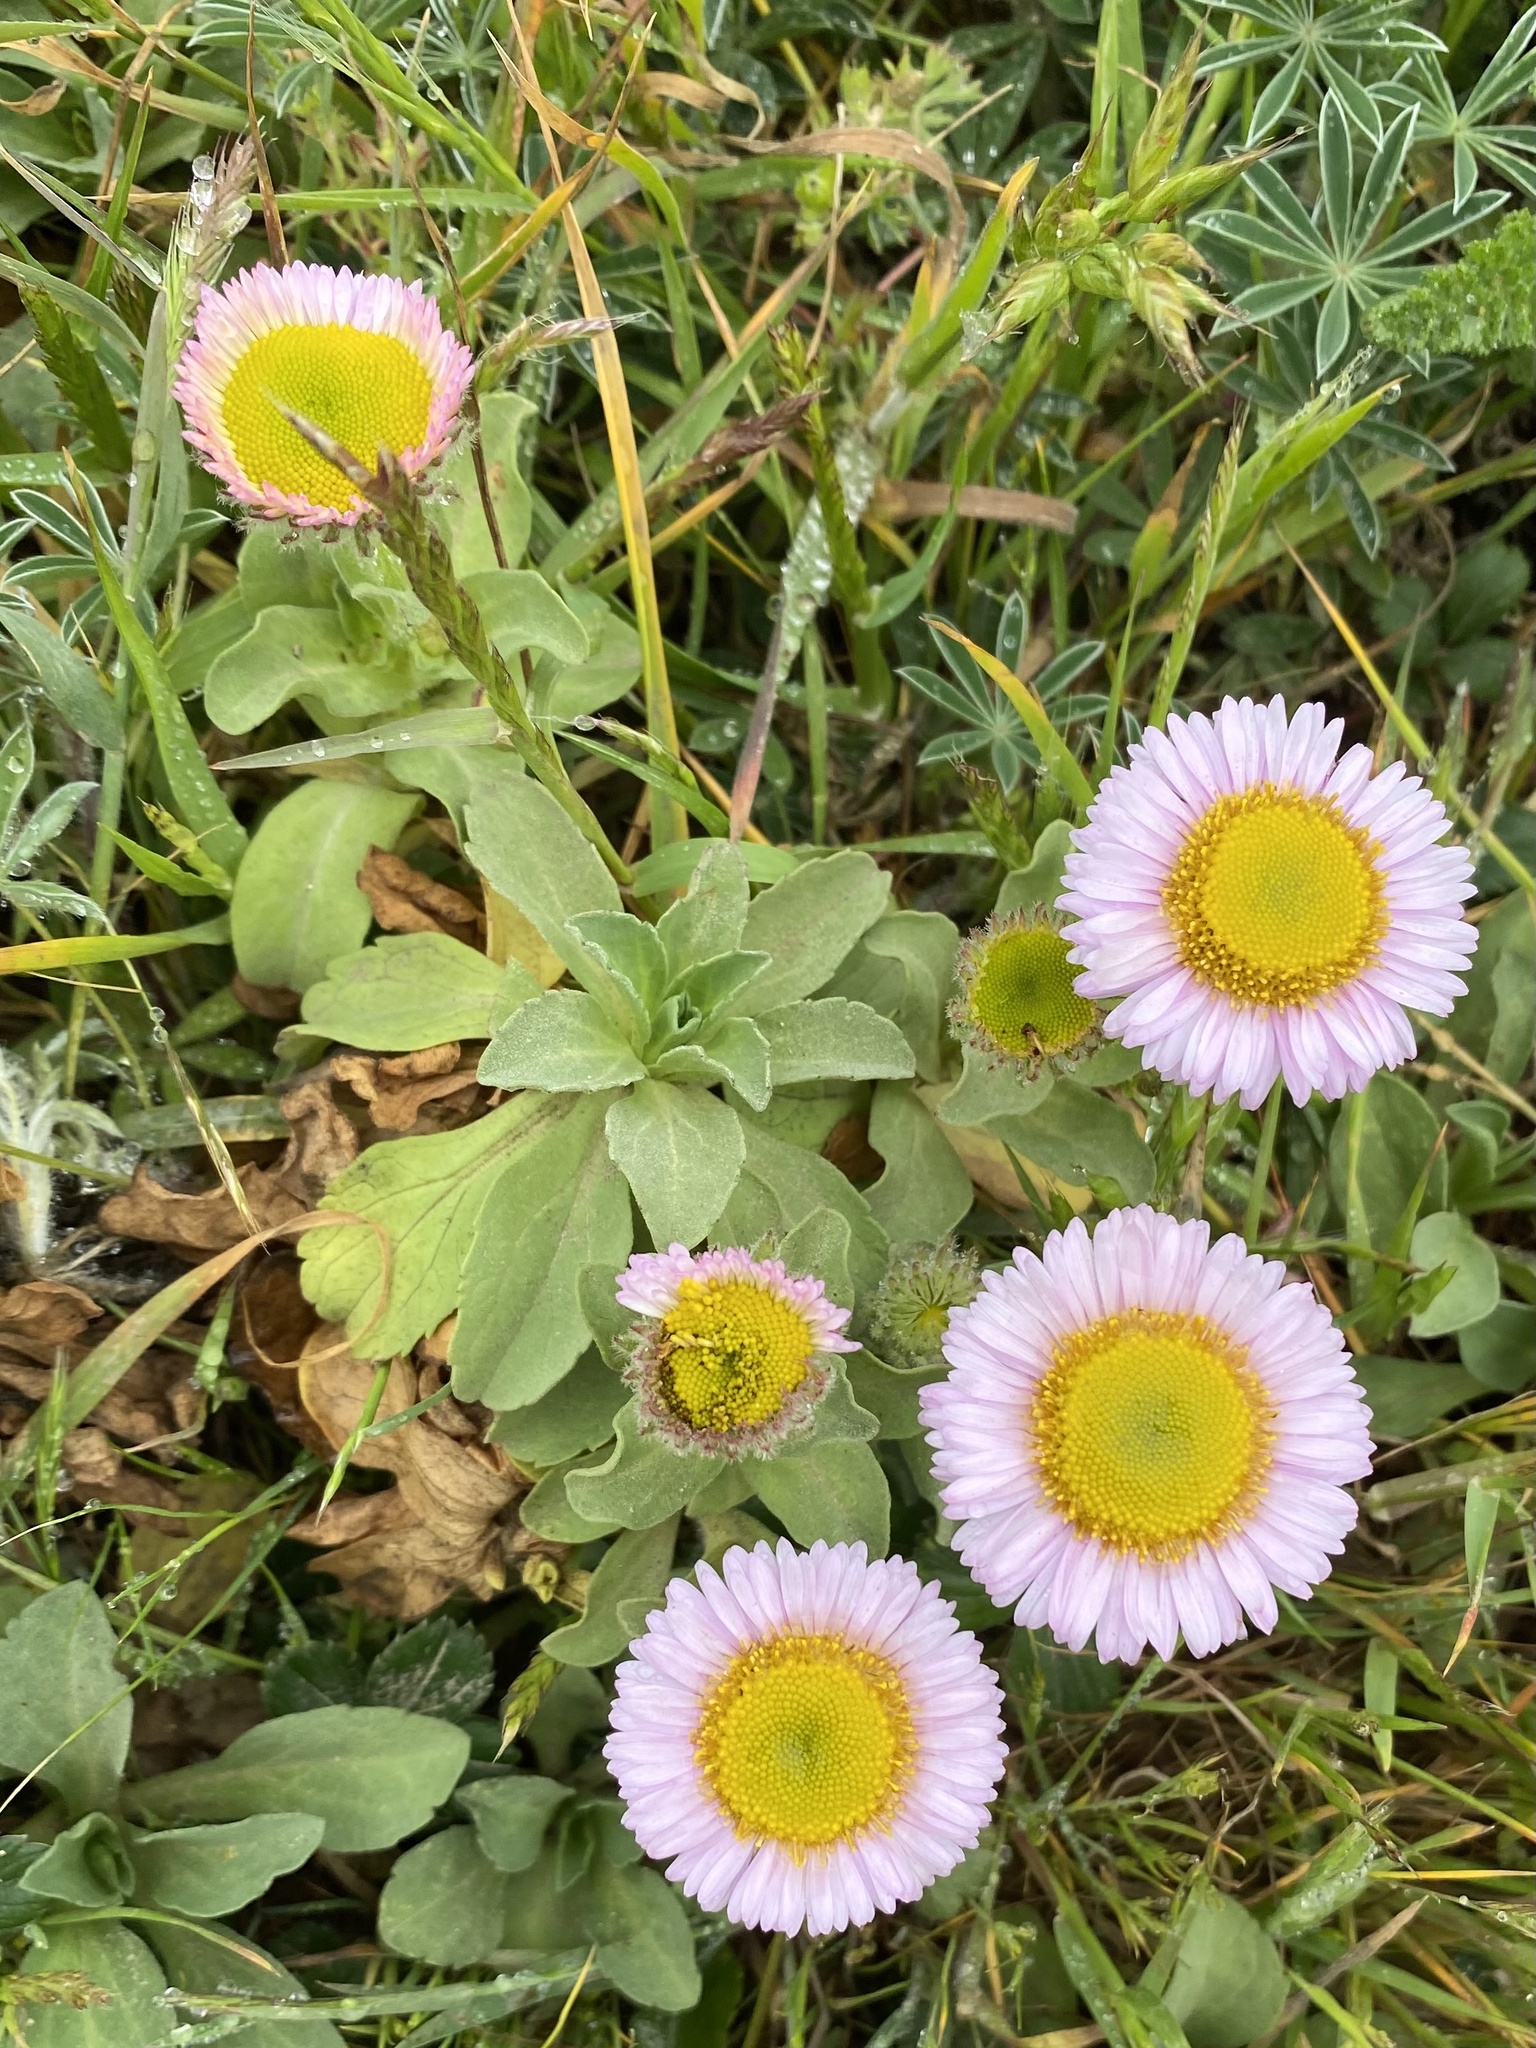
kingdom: Plantae
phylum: Tracheophyta
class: Magnoliopsida
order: Asterales
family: Asteraceae
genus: Erigeron
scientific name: Erigeron glaucus
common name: Seaside daisy
